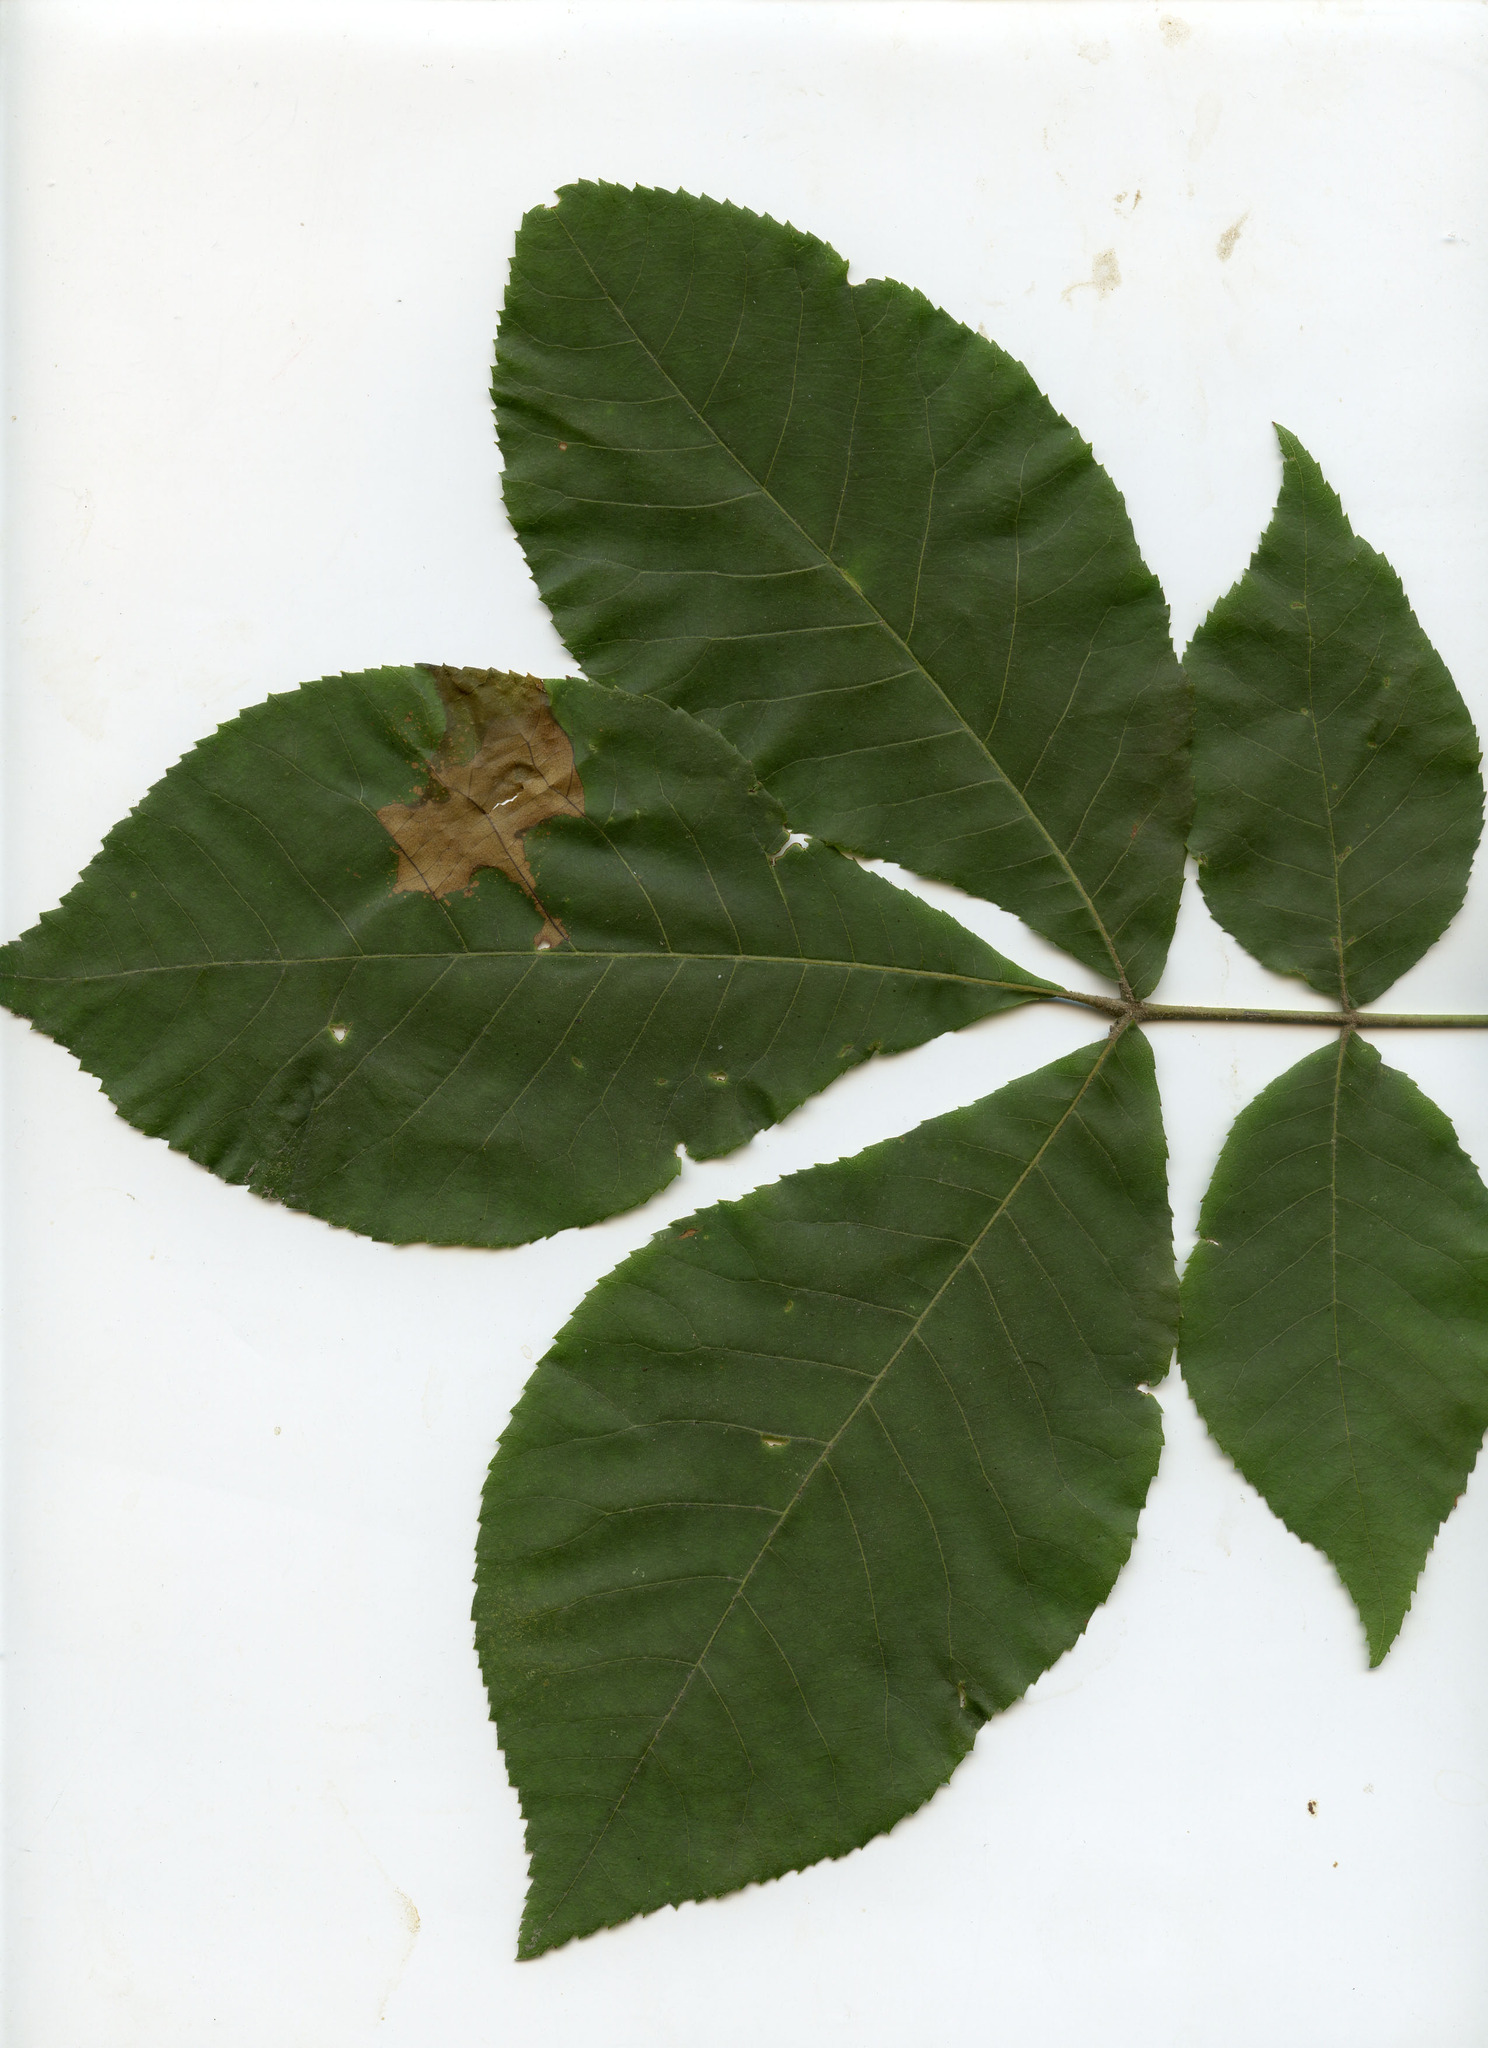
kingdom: Plantae
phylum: Tracheophyta
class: Magnoliopsida
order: Fagales
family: Juglandaceae
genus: Carya
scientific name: Carya glabra
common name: Pignut hickory
